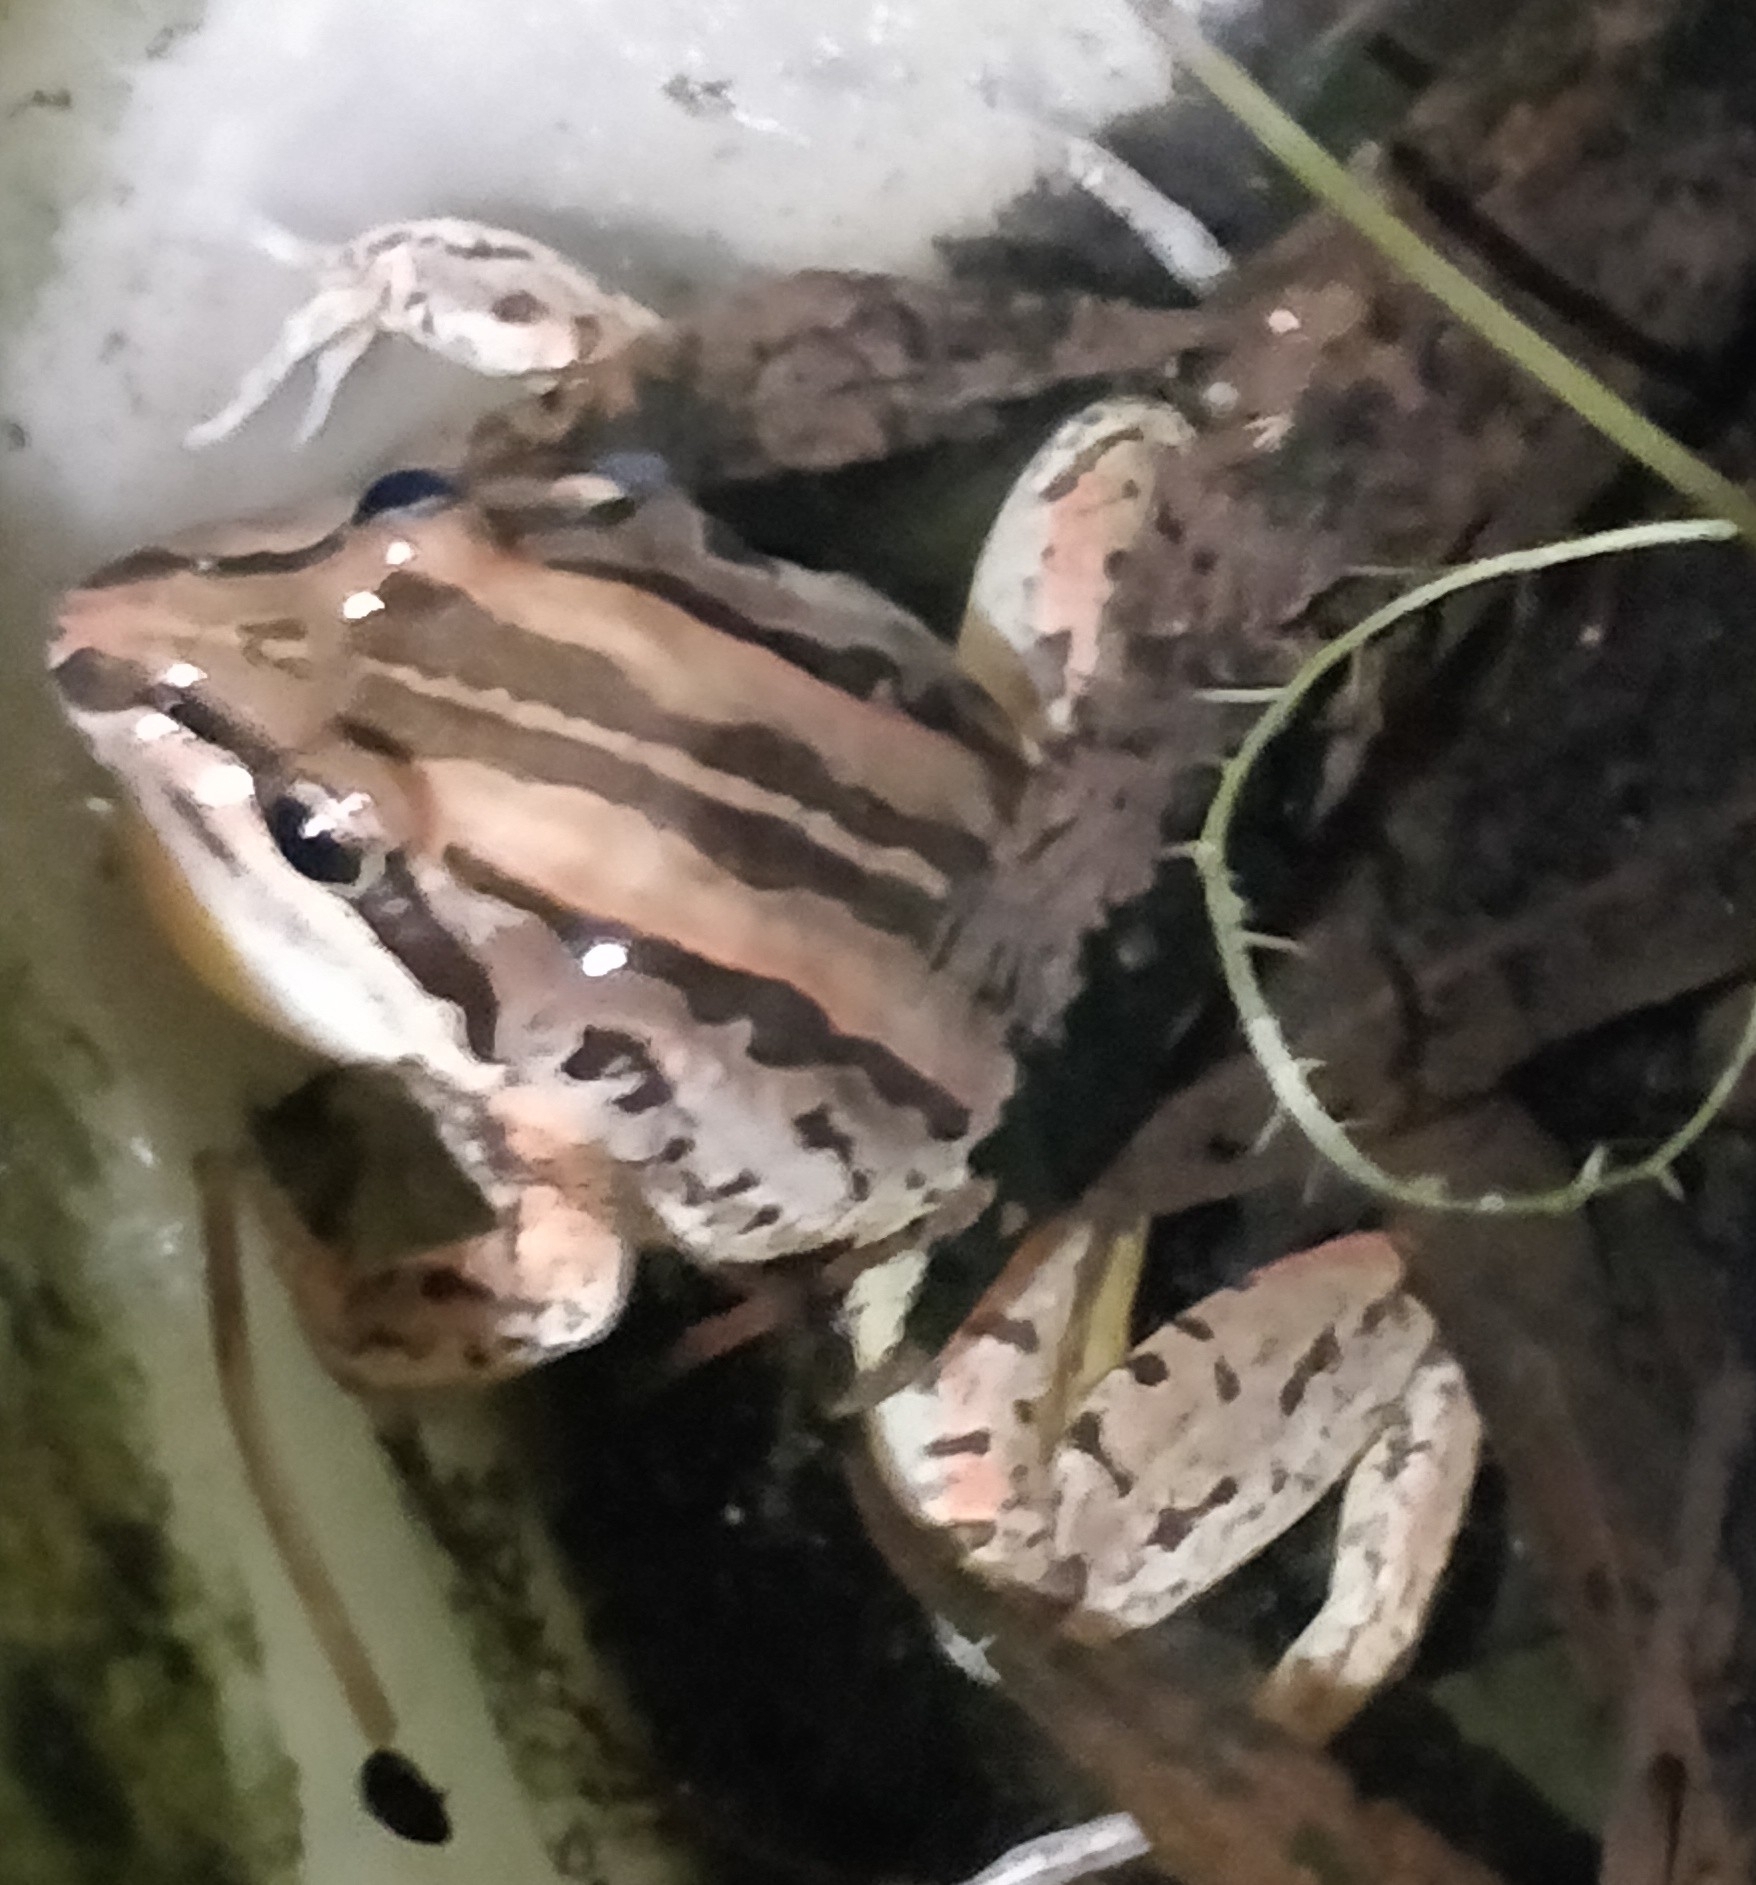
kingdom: Animalia
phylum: Chordata
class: Amphibia
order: Anura
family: Limnodynastidae
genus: Limnodynastes
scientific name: Limnodynastes peronii
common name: Brown frog
